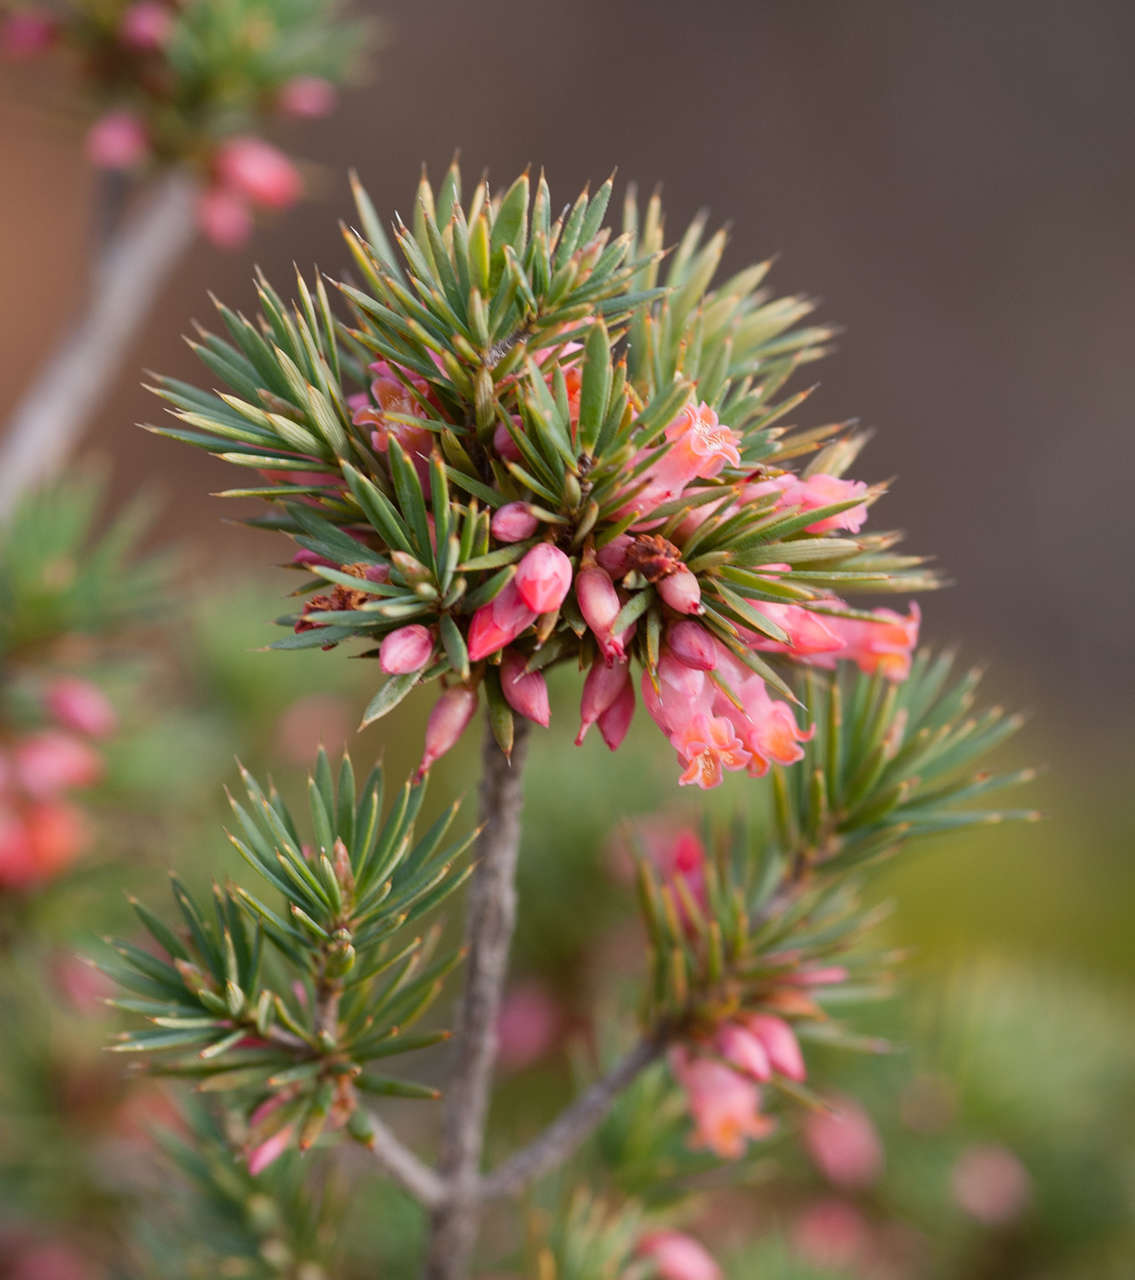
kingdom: Plantae
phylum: Tracheophyta
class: Magnoliopsida
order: Ericales
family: Ericaceae
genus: Brachyloma
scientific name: Brachyloma ericoides
